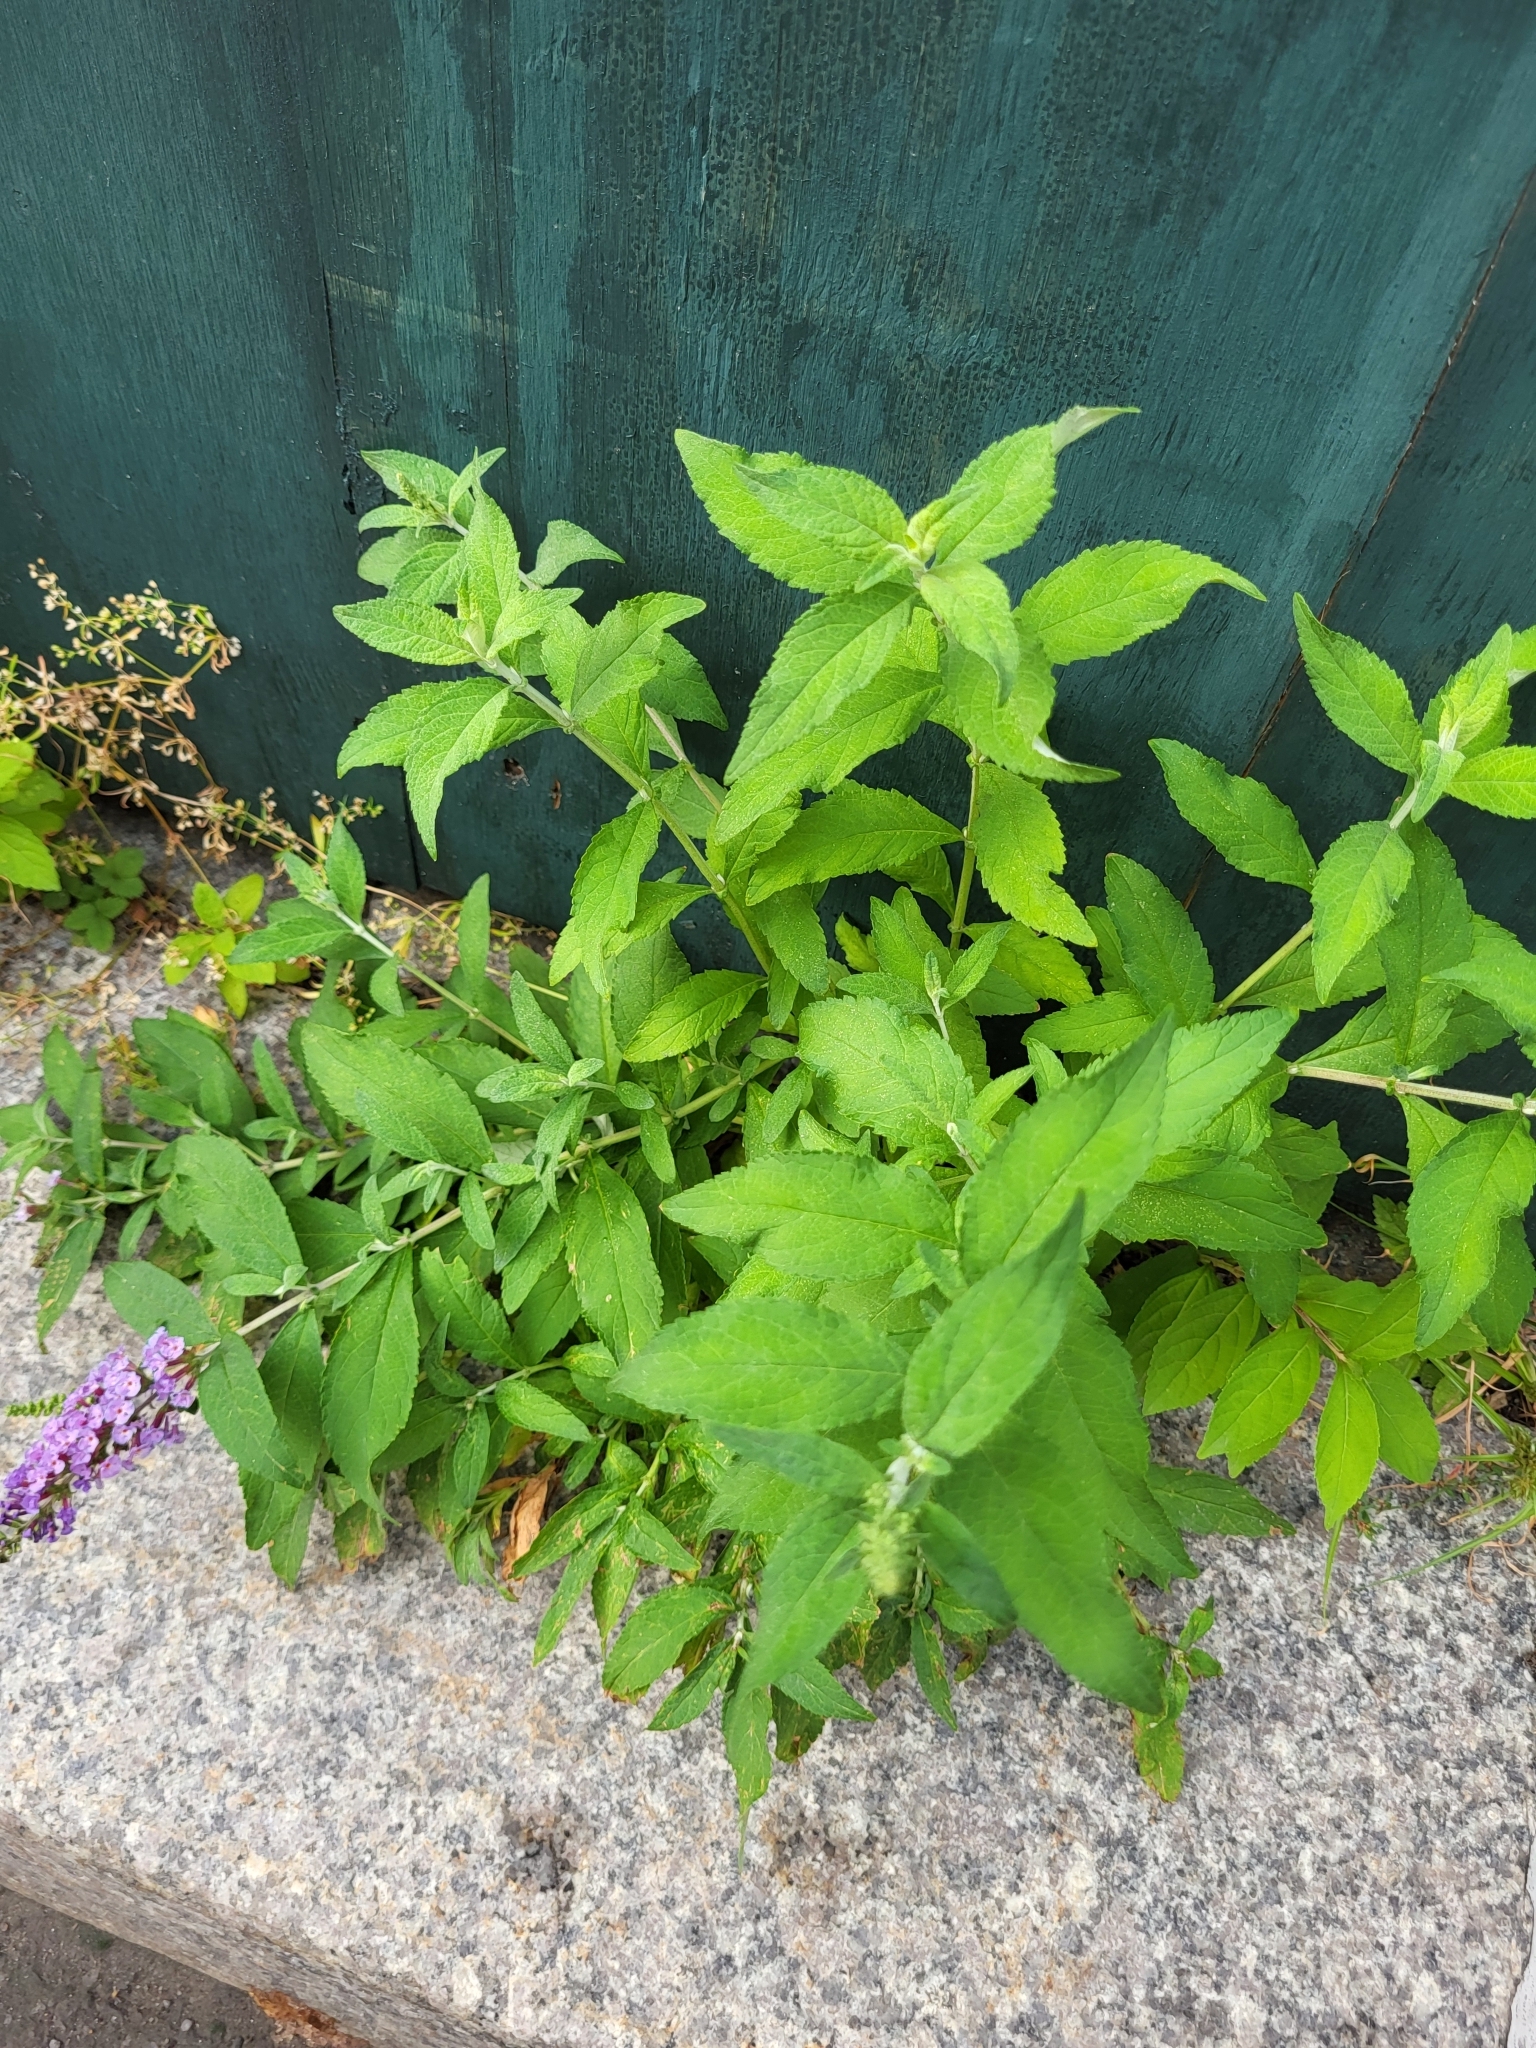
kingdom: Plantae
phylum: Tracheophyta
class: Magnoliopsida
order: Lamiales
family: Scrophulariaceae
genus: Buddleja
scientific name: Buddleja davidii
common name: Butterfly-bush
